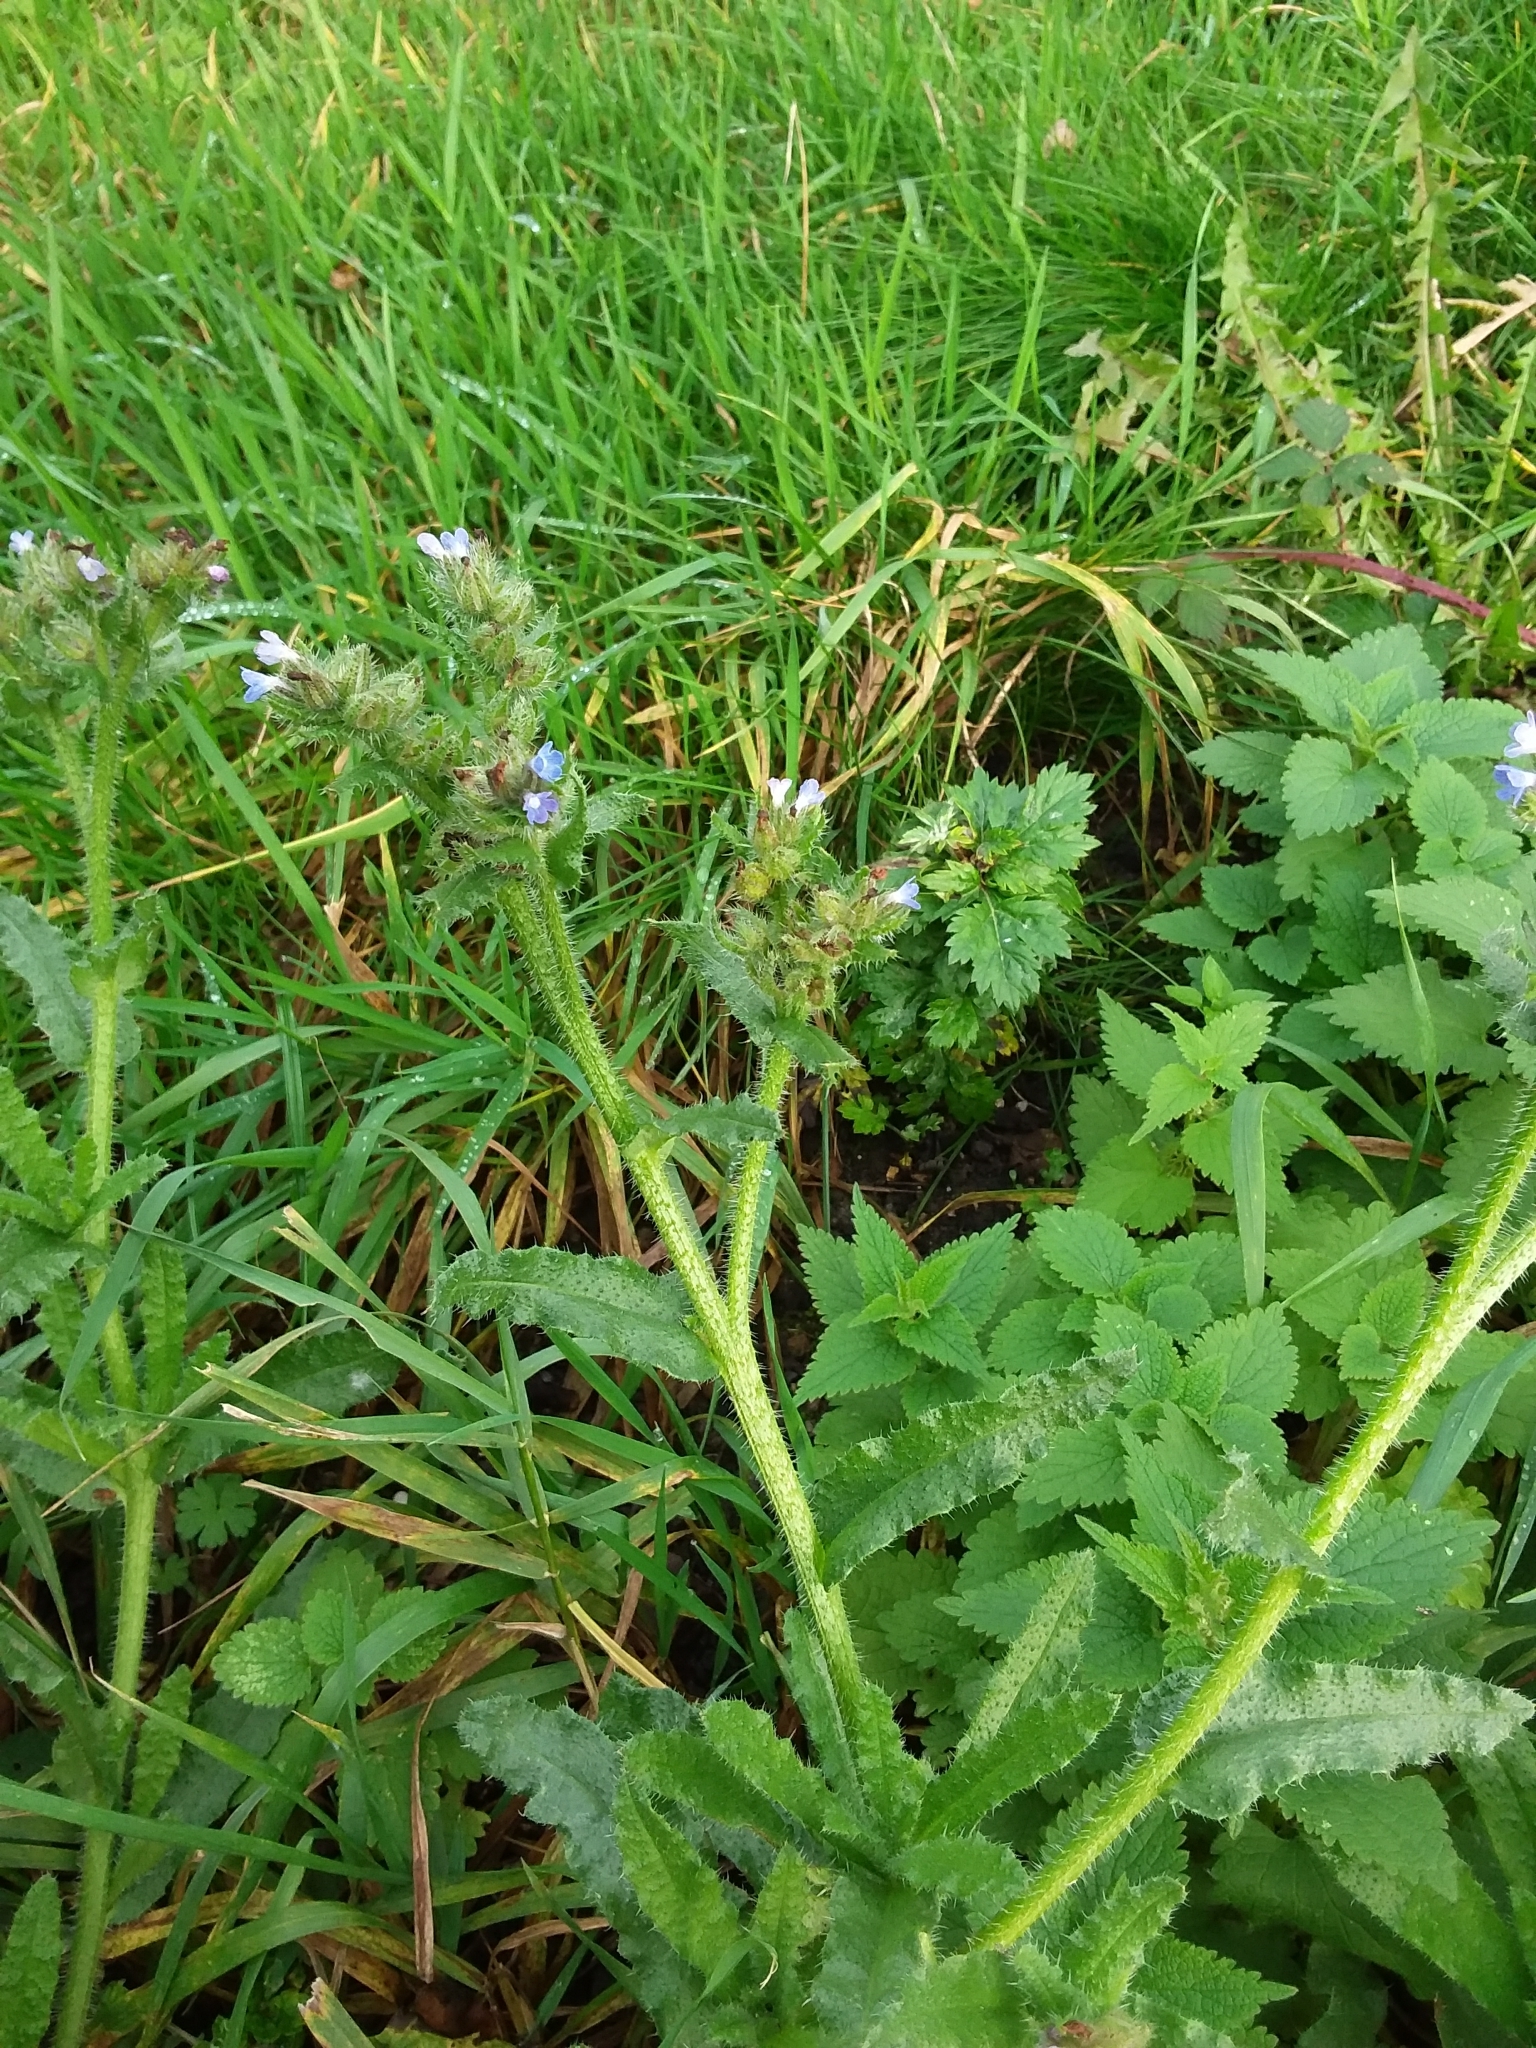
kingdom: Plantae
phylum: Tracheophyta
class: Magnoliopsida
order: Boraginales
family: Boraginaceae
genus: Lycopsis
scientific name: Lycopsis arvensis
